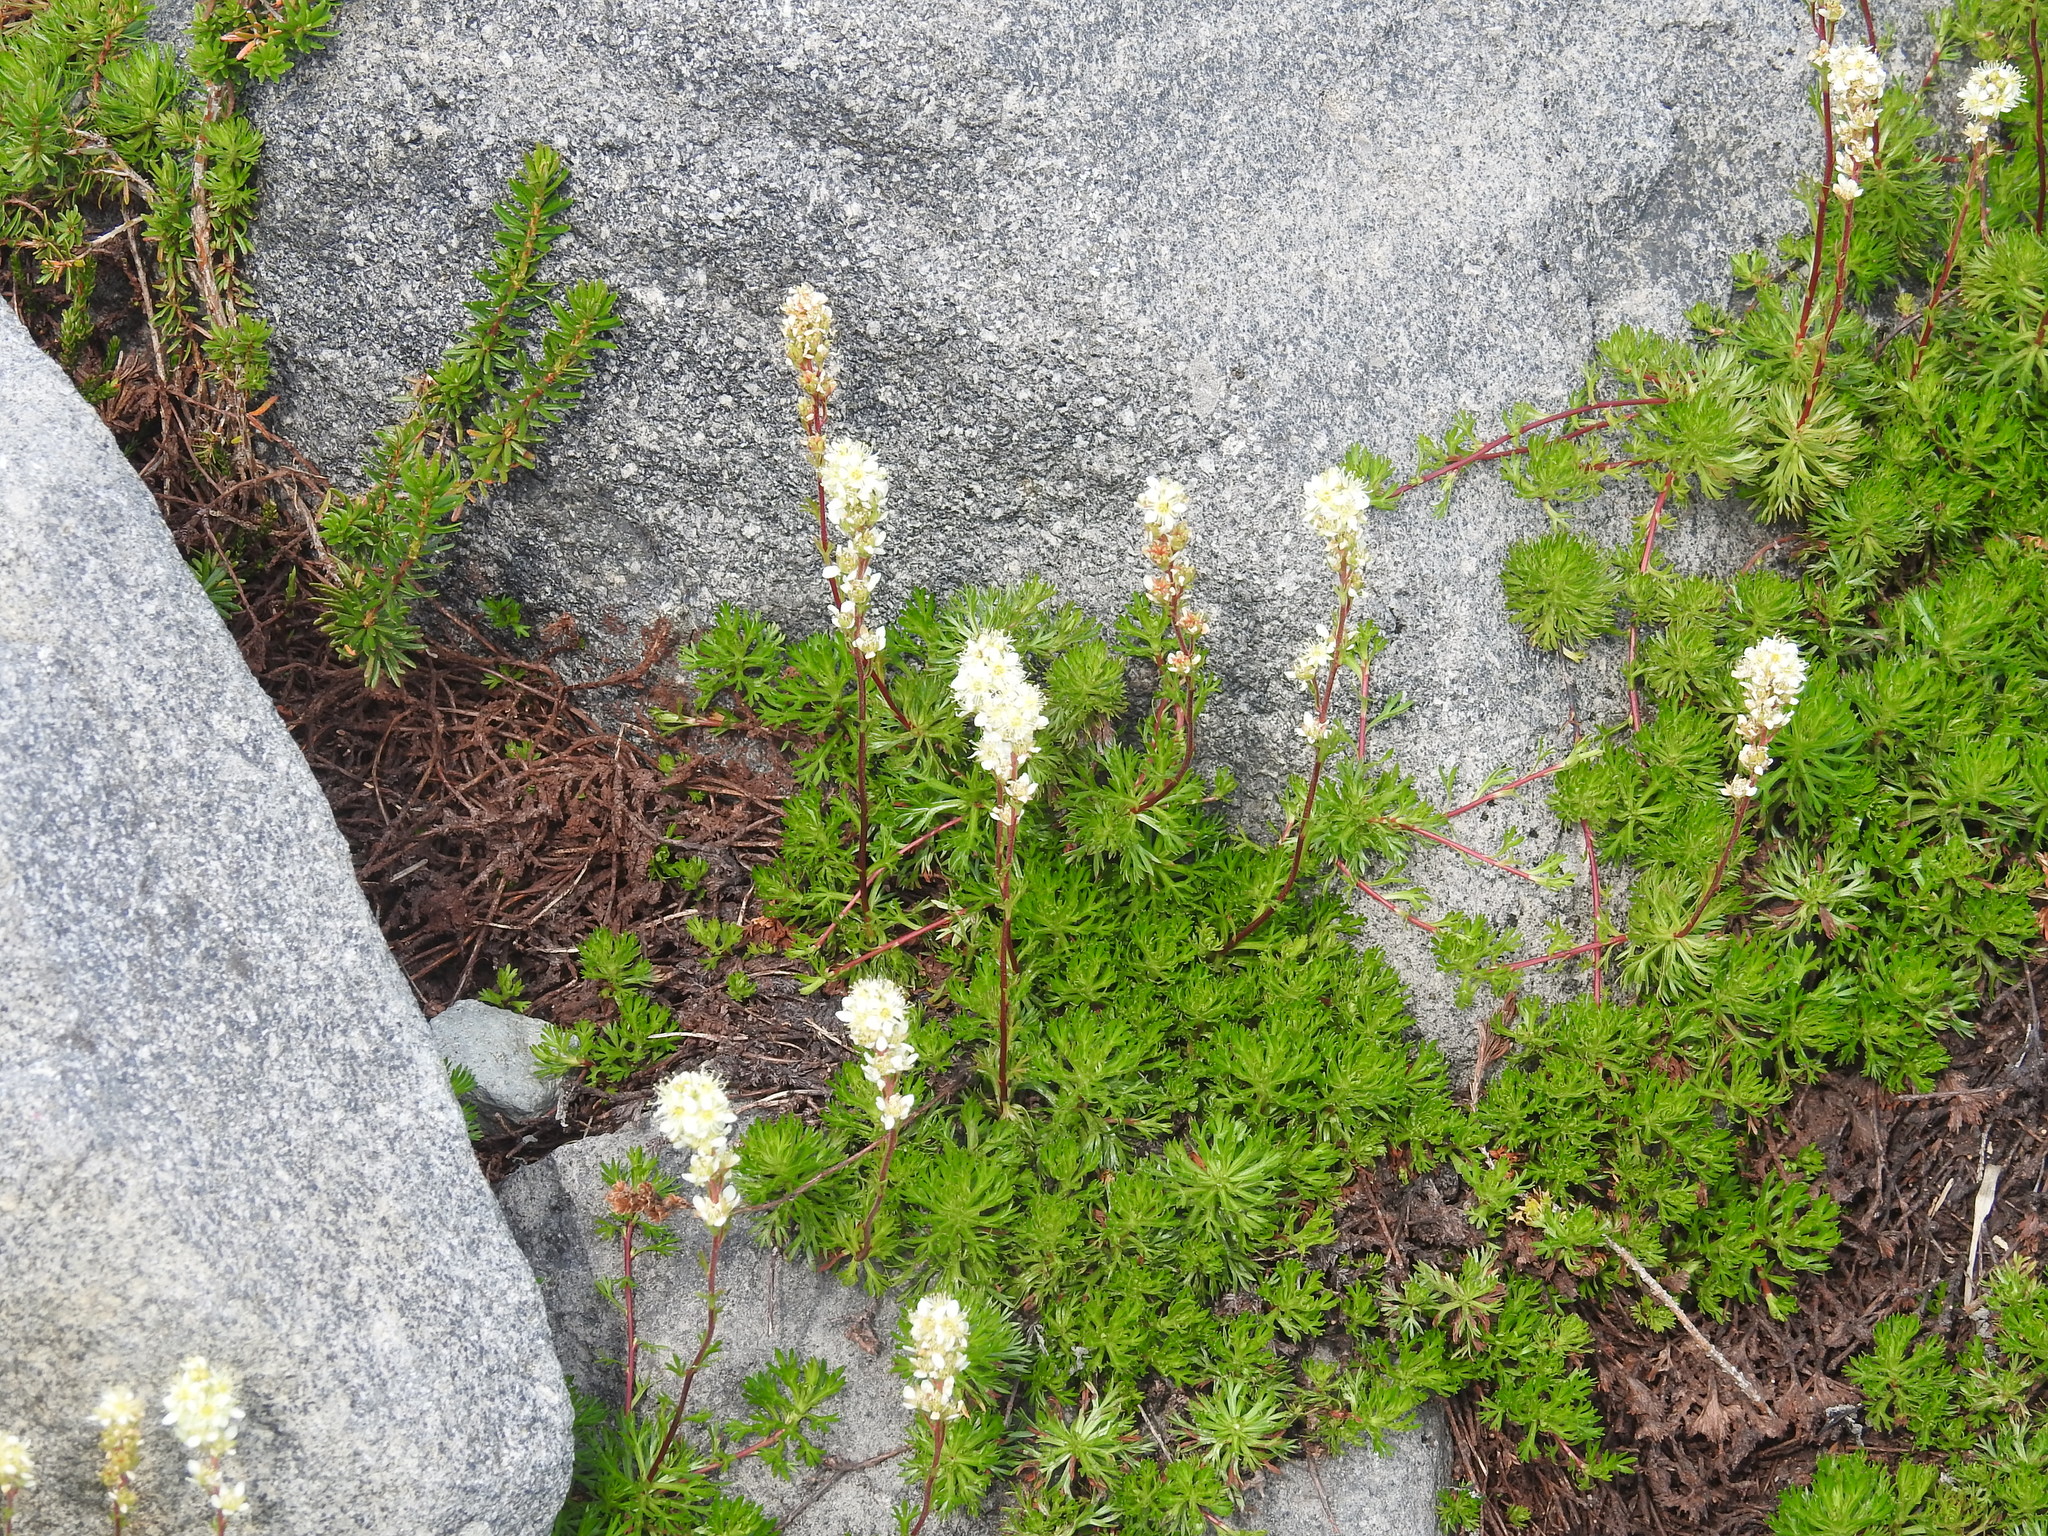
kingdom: Plantae
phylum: Tracheophyta
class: Magnoliopsida
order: Rosales
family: Rosaceae
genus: Luetkea
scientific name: Luetkea pectinata
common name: Partridgefoot
